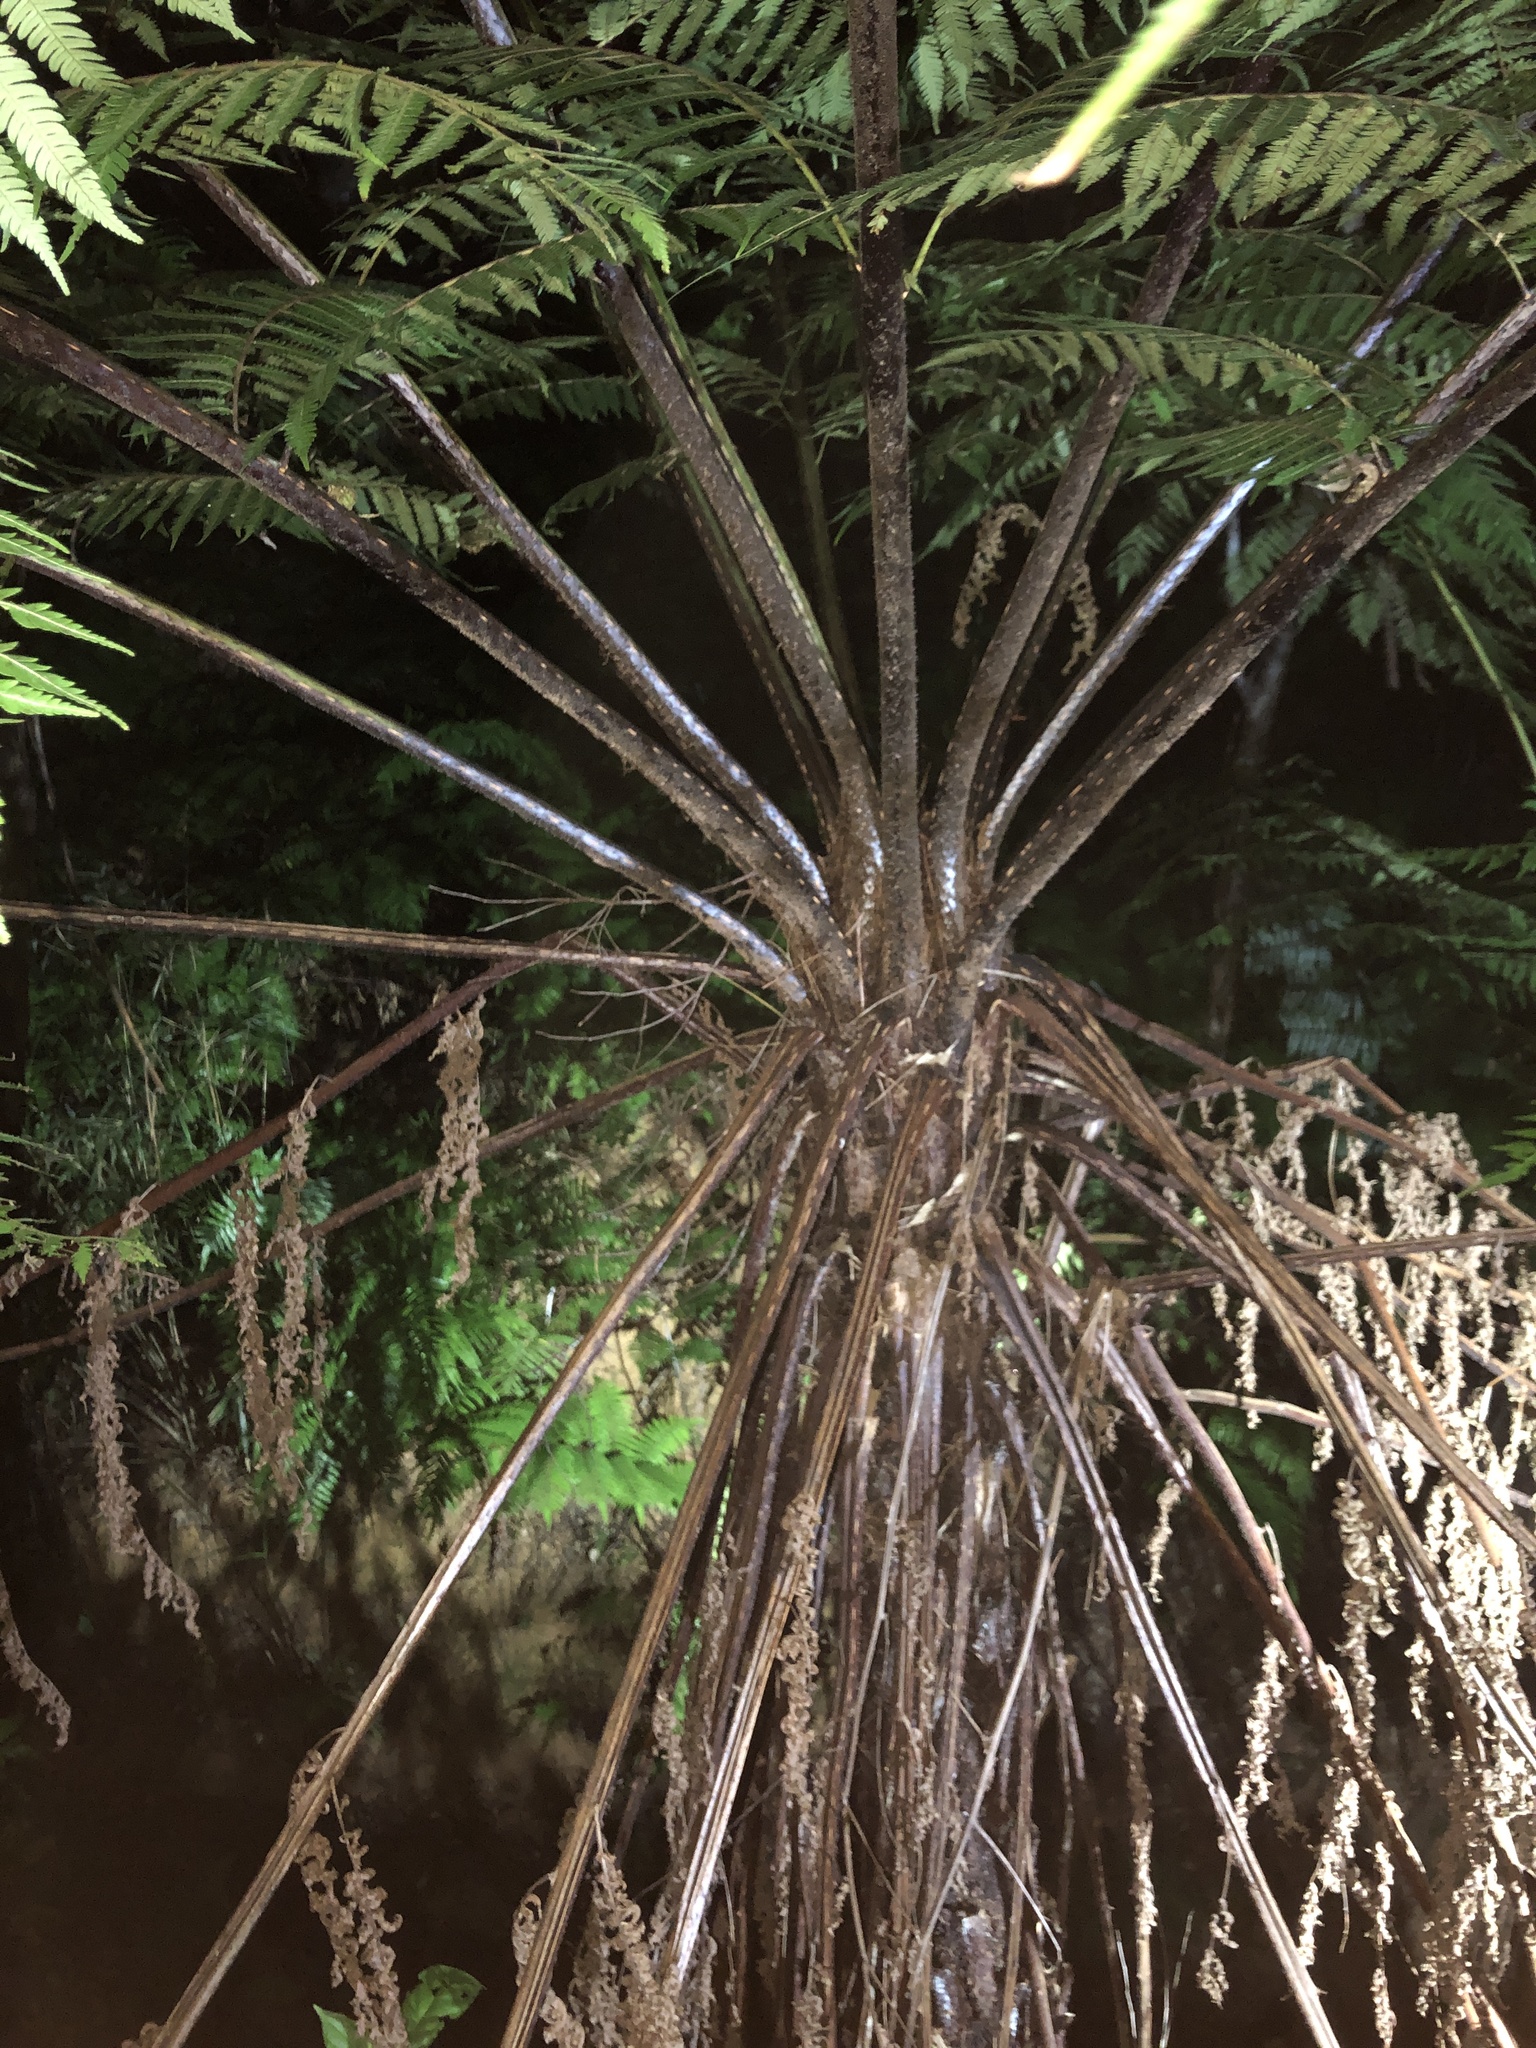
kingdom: Plantae
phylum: Tracheophyta
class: Polypodiopsida
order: Cyatheales
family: Cyatheaceae
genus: Alsophila
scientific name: Alsophila spinulosa
